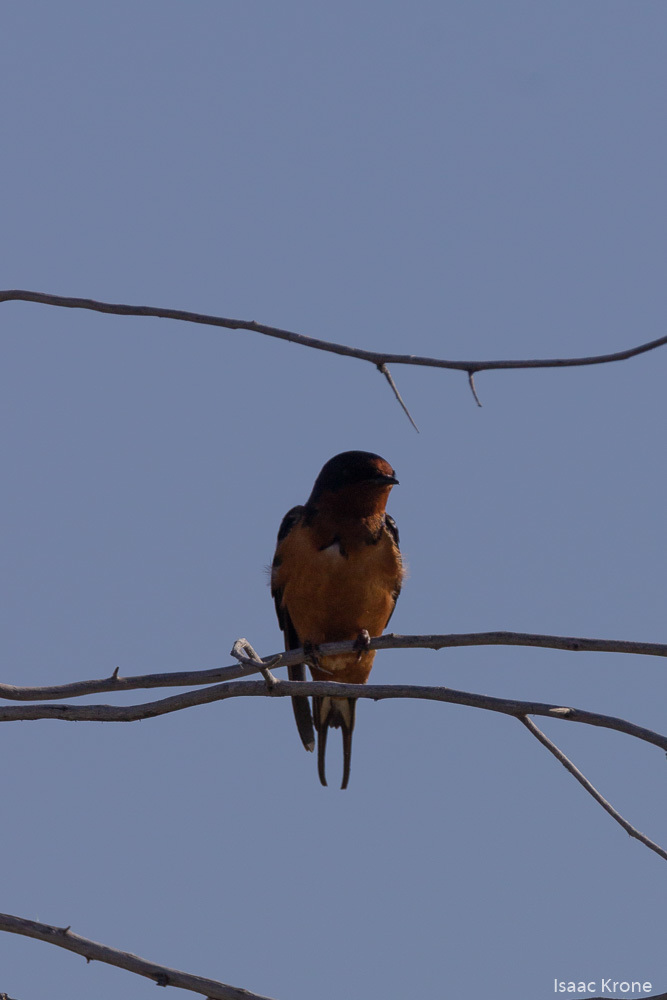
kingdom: Animalia
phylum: Chordata
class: Aves
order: Passeriformes
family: Hirundinidae
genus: Hirundo
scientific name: Hirundo rustica
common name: Barn swallow
